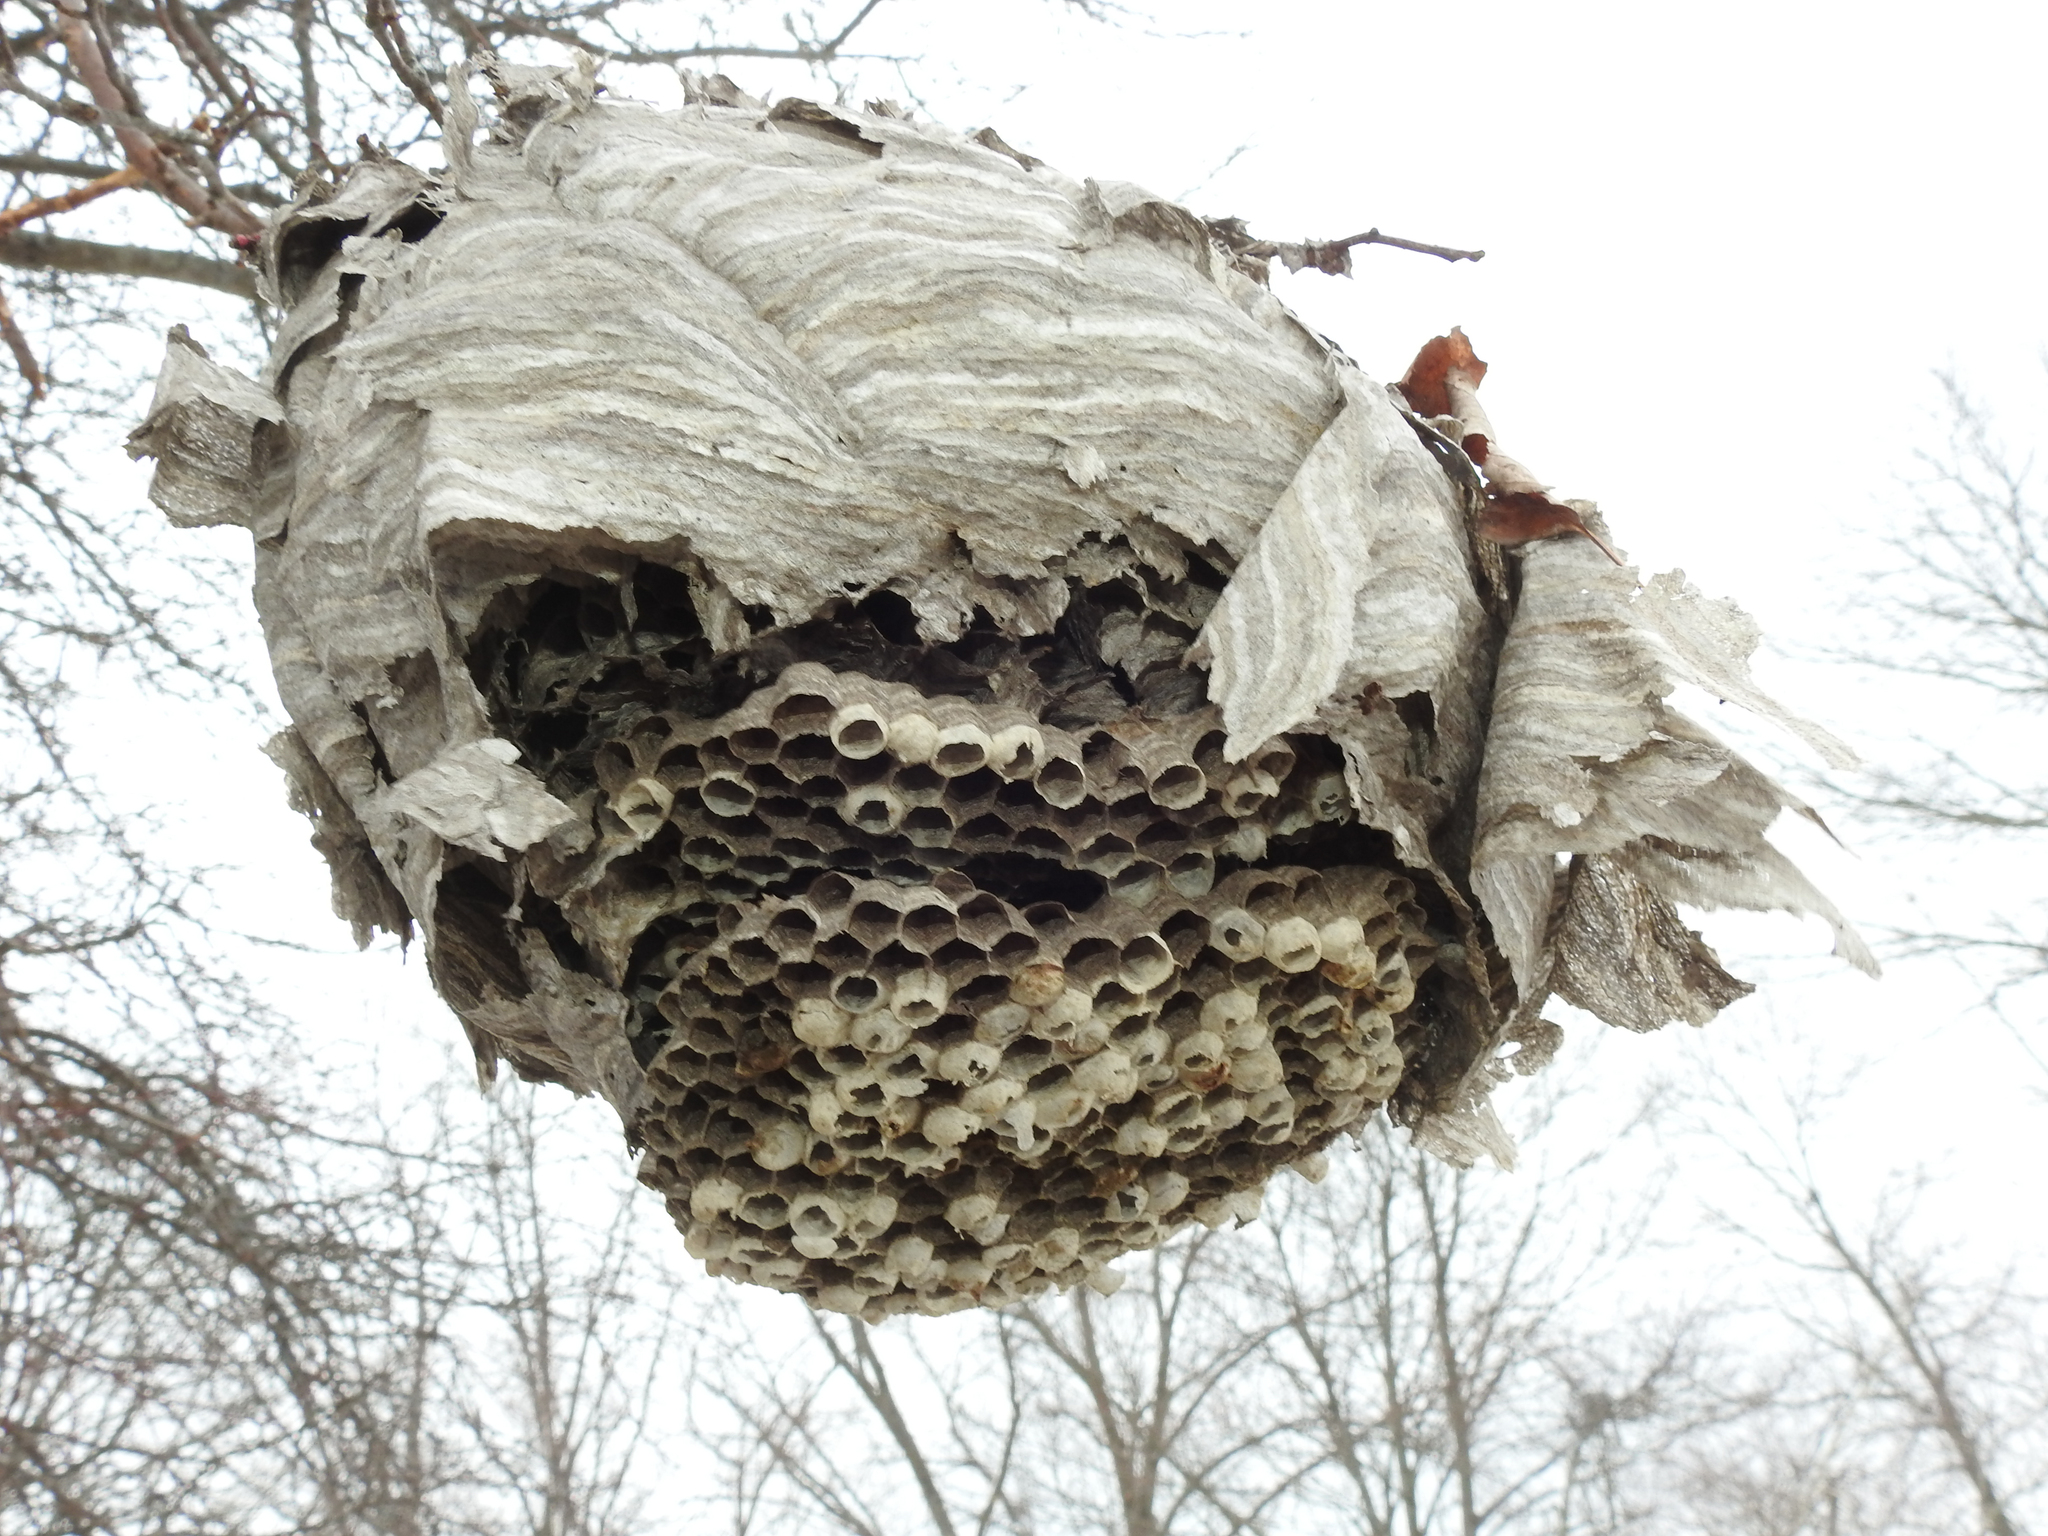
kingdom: Animalia
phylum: Arthropoda
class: Insecta
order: Hymenoptera
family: Vespidae
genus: Dolichovespula
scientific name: Dolichovespula maculata
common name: Bald-faced hornet
